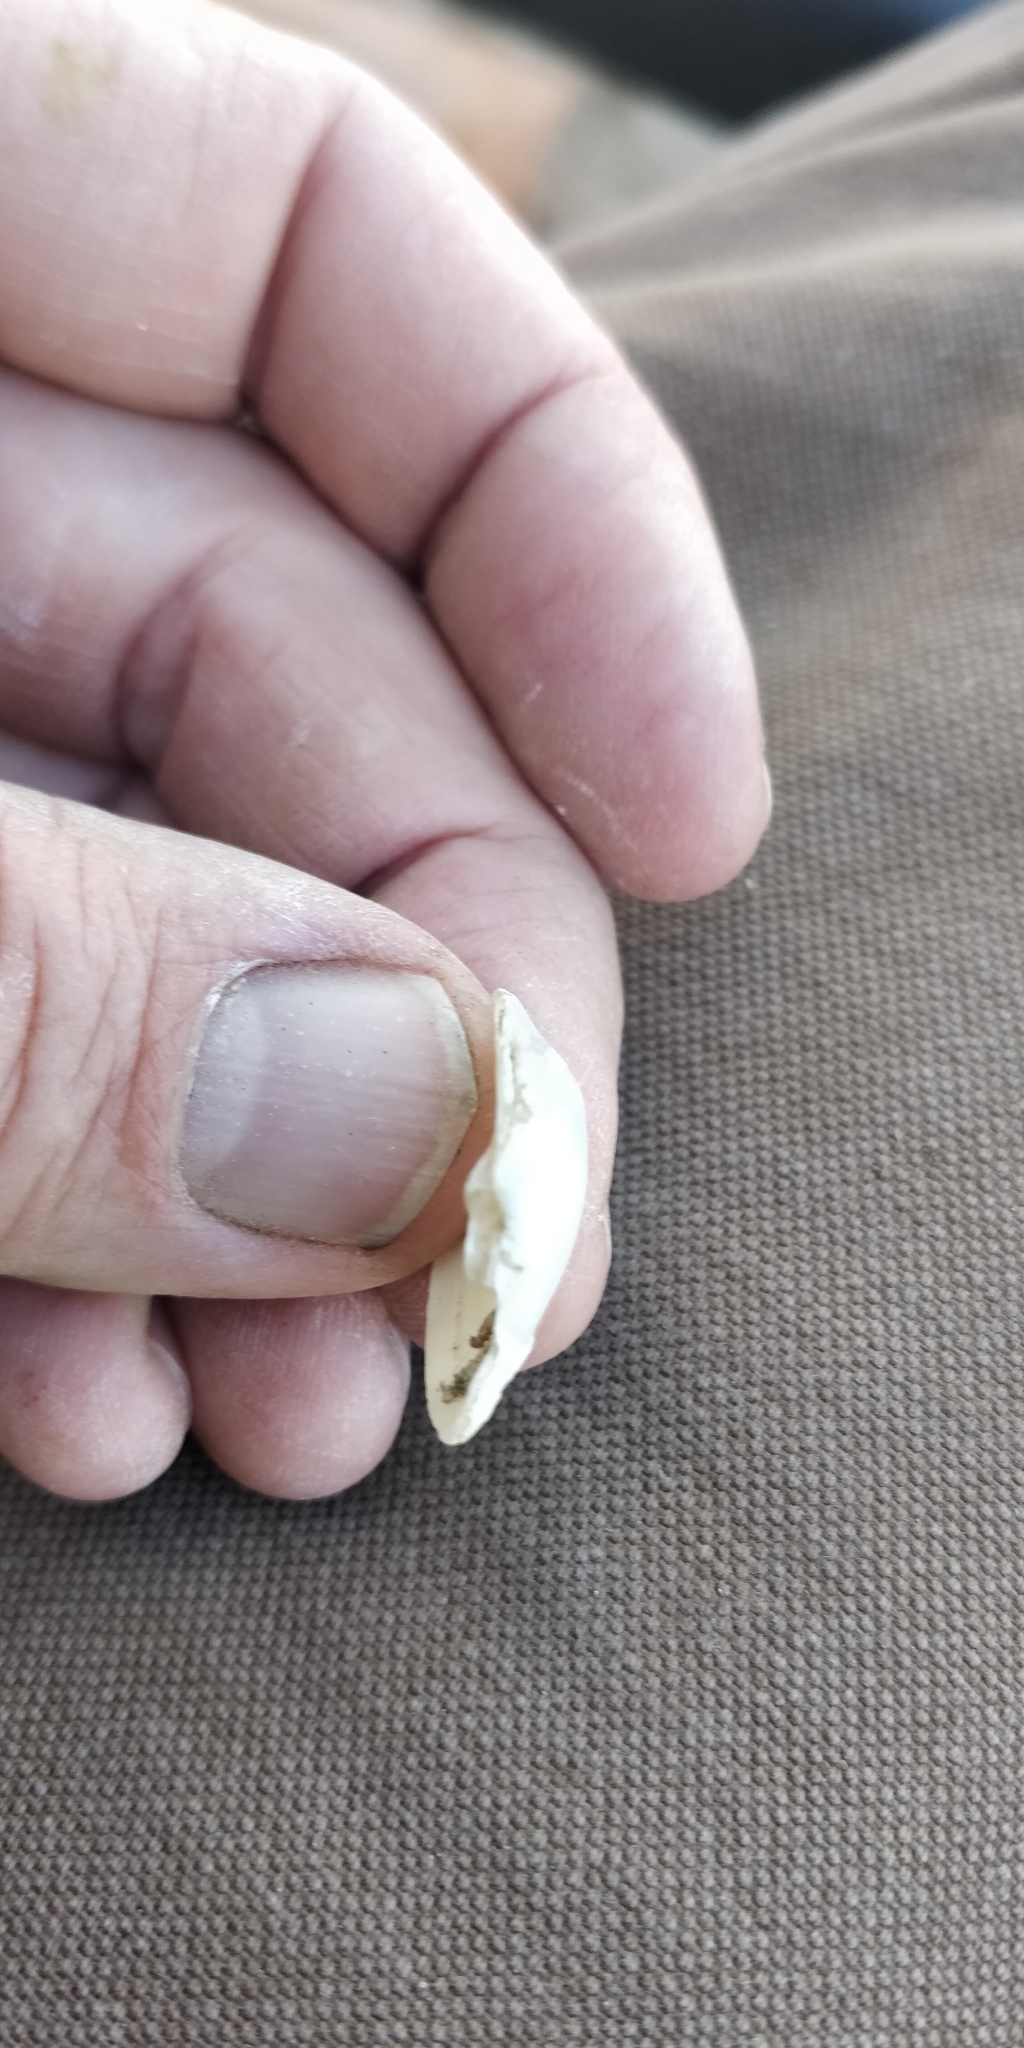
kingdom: Animalia
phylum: Mollusca
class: Bivalvia
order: Unionida
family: Unionidae
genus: Truncilla
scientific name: Truncilla donaciformis
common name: Fawnsfoot
